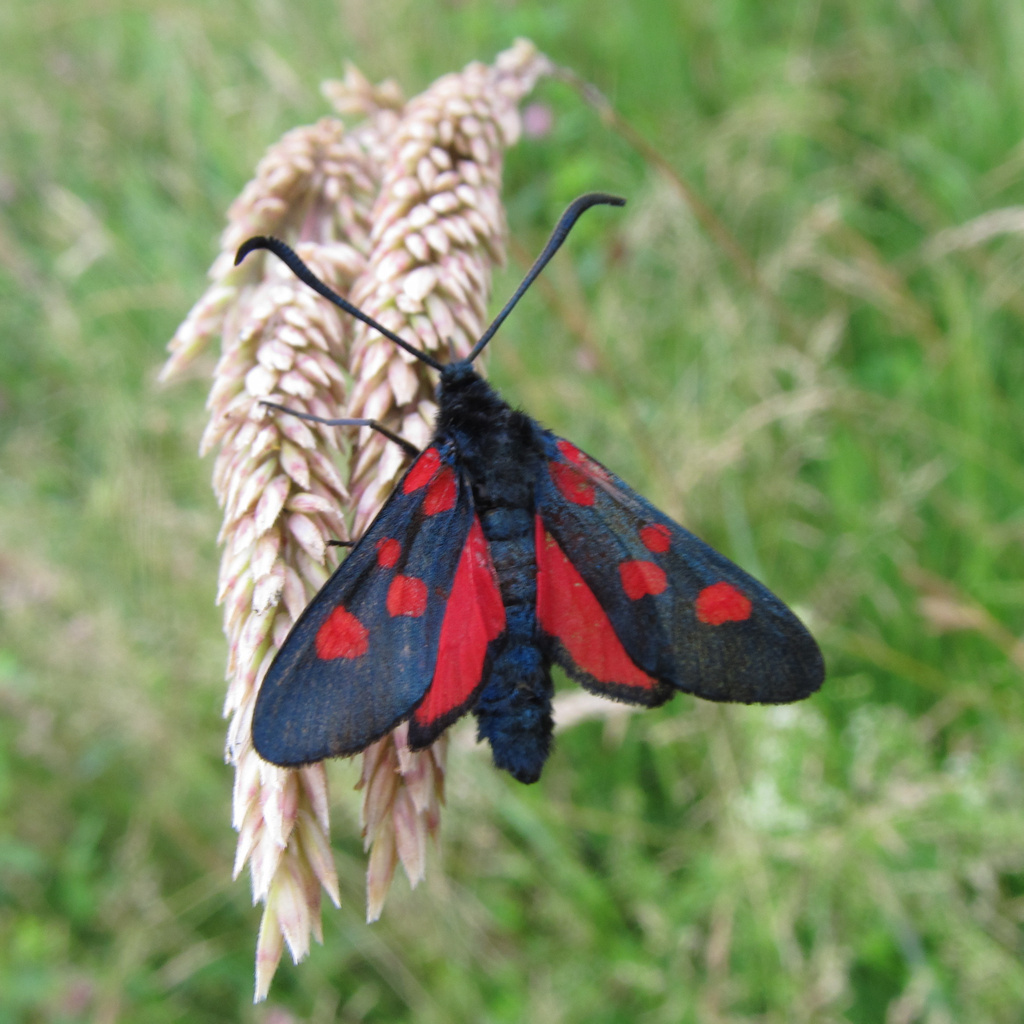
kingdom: Animalia
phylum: Arthropoda
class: Insecta
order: Lepidoptera
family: Zygaenidae
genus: Zygaena
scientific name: Zygaena lonicerae
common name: Narrow-bordered five-spot burnet
